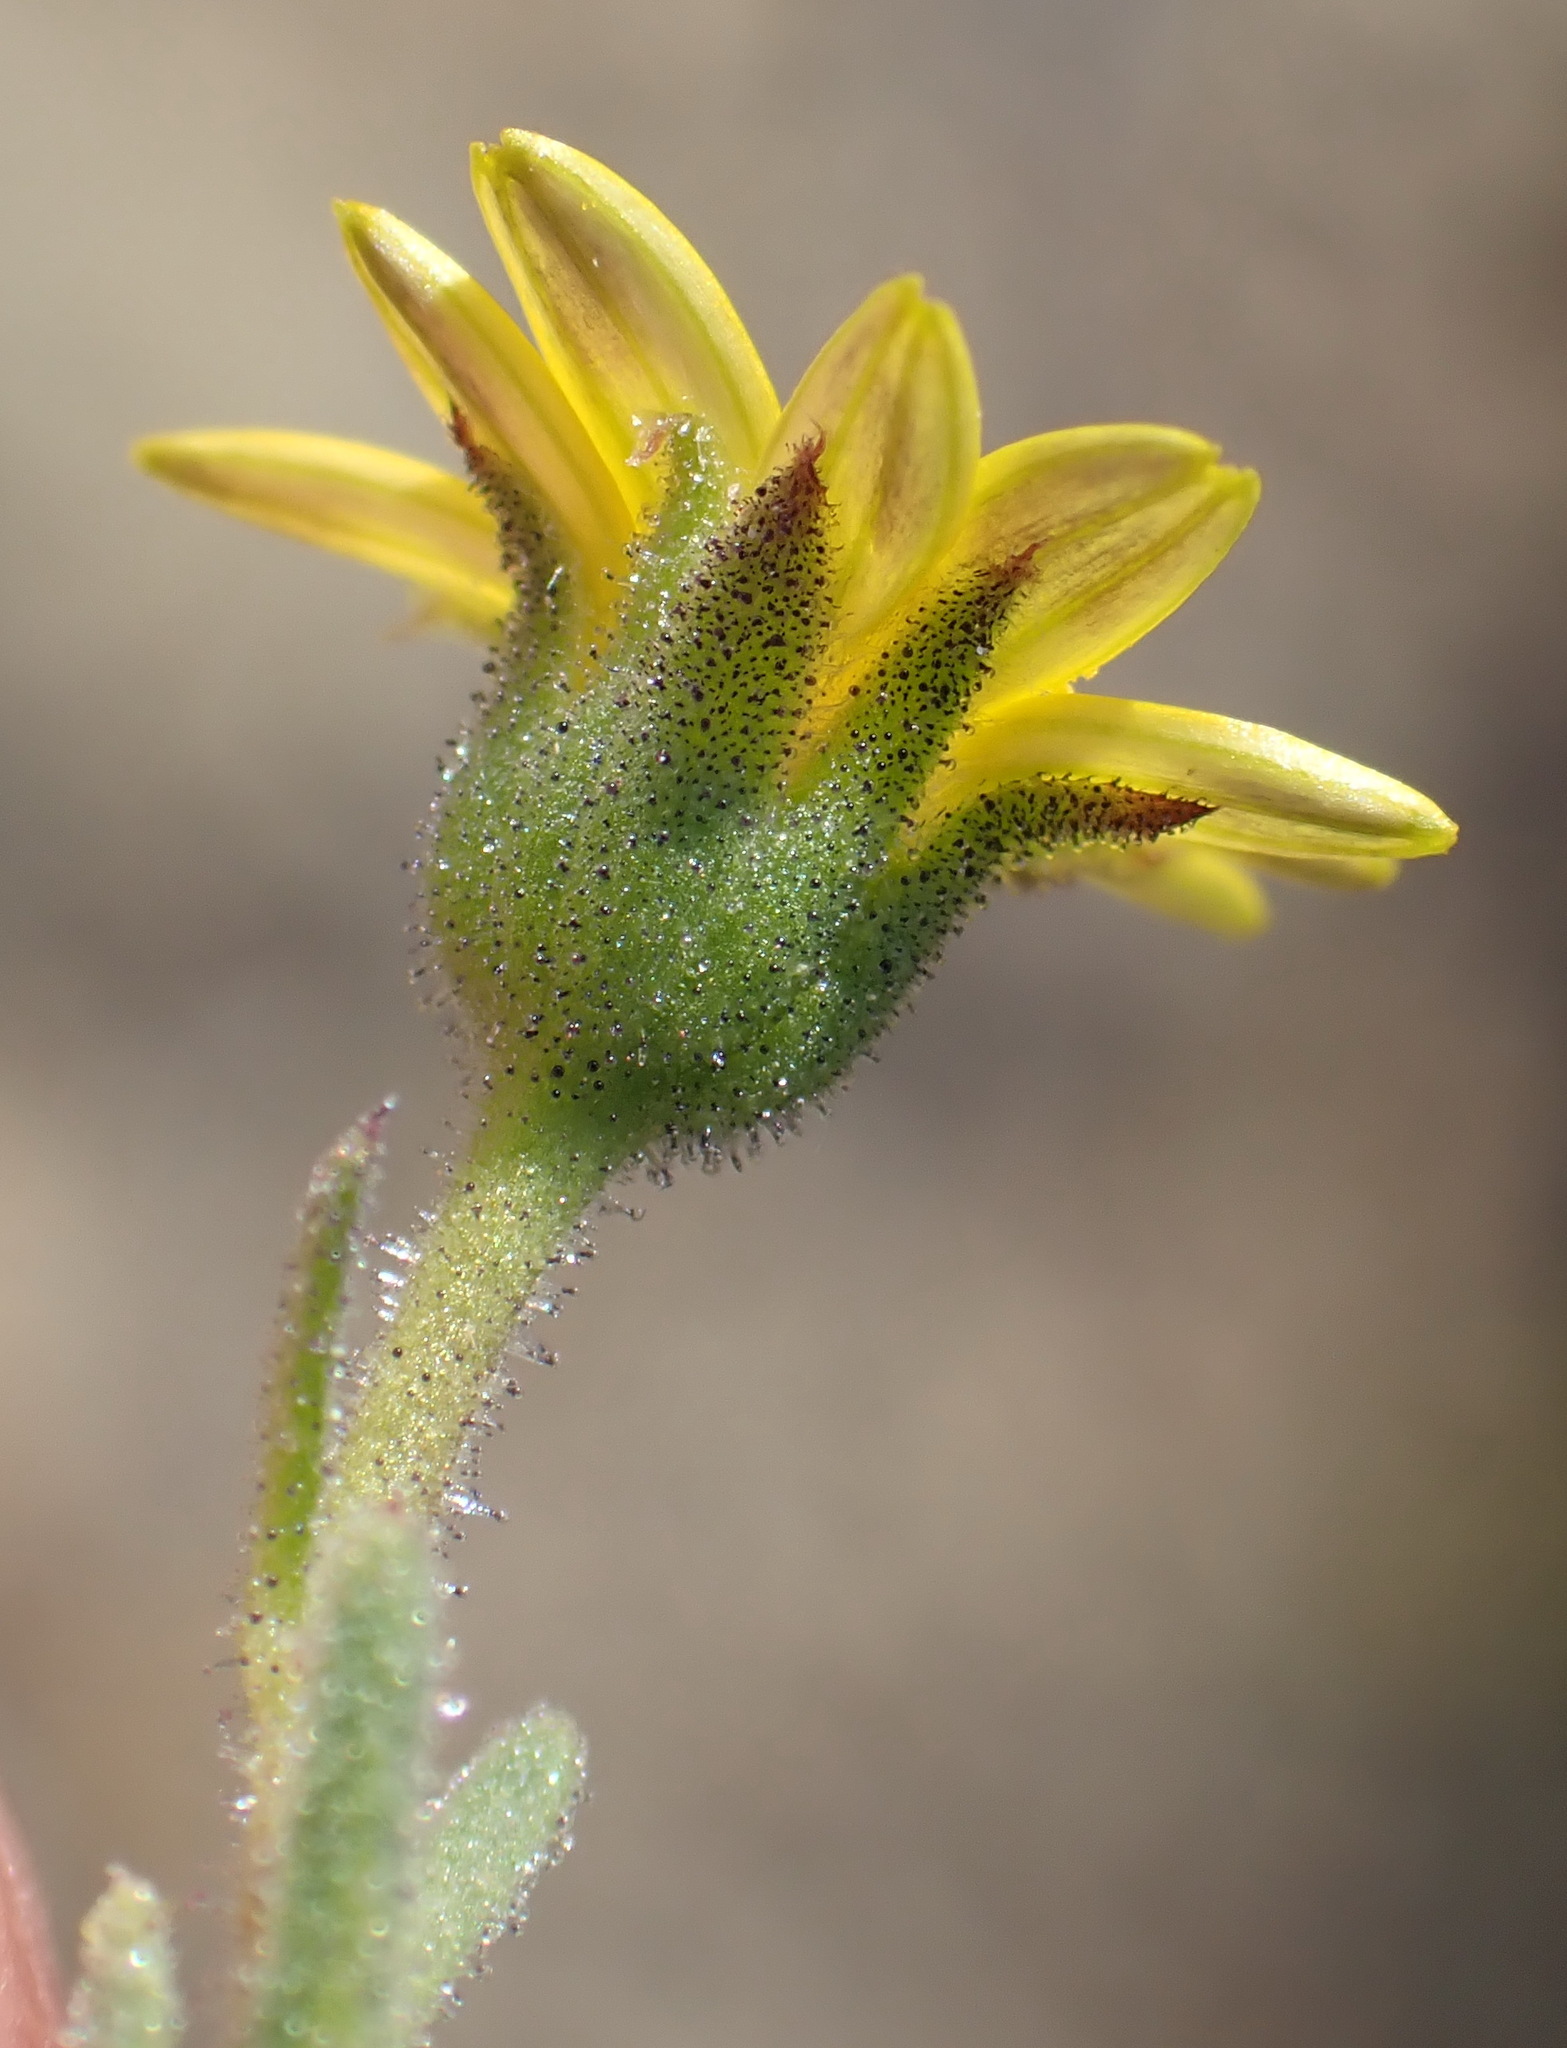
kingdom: Plantae
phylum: Tracheophyta
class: Magnoliopsida
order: Asterales
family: Asteraceae
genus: Osteospermum
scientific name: Osteospermum calendulaceum
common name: Stinking roger
